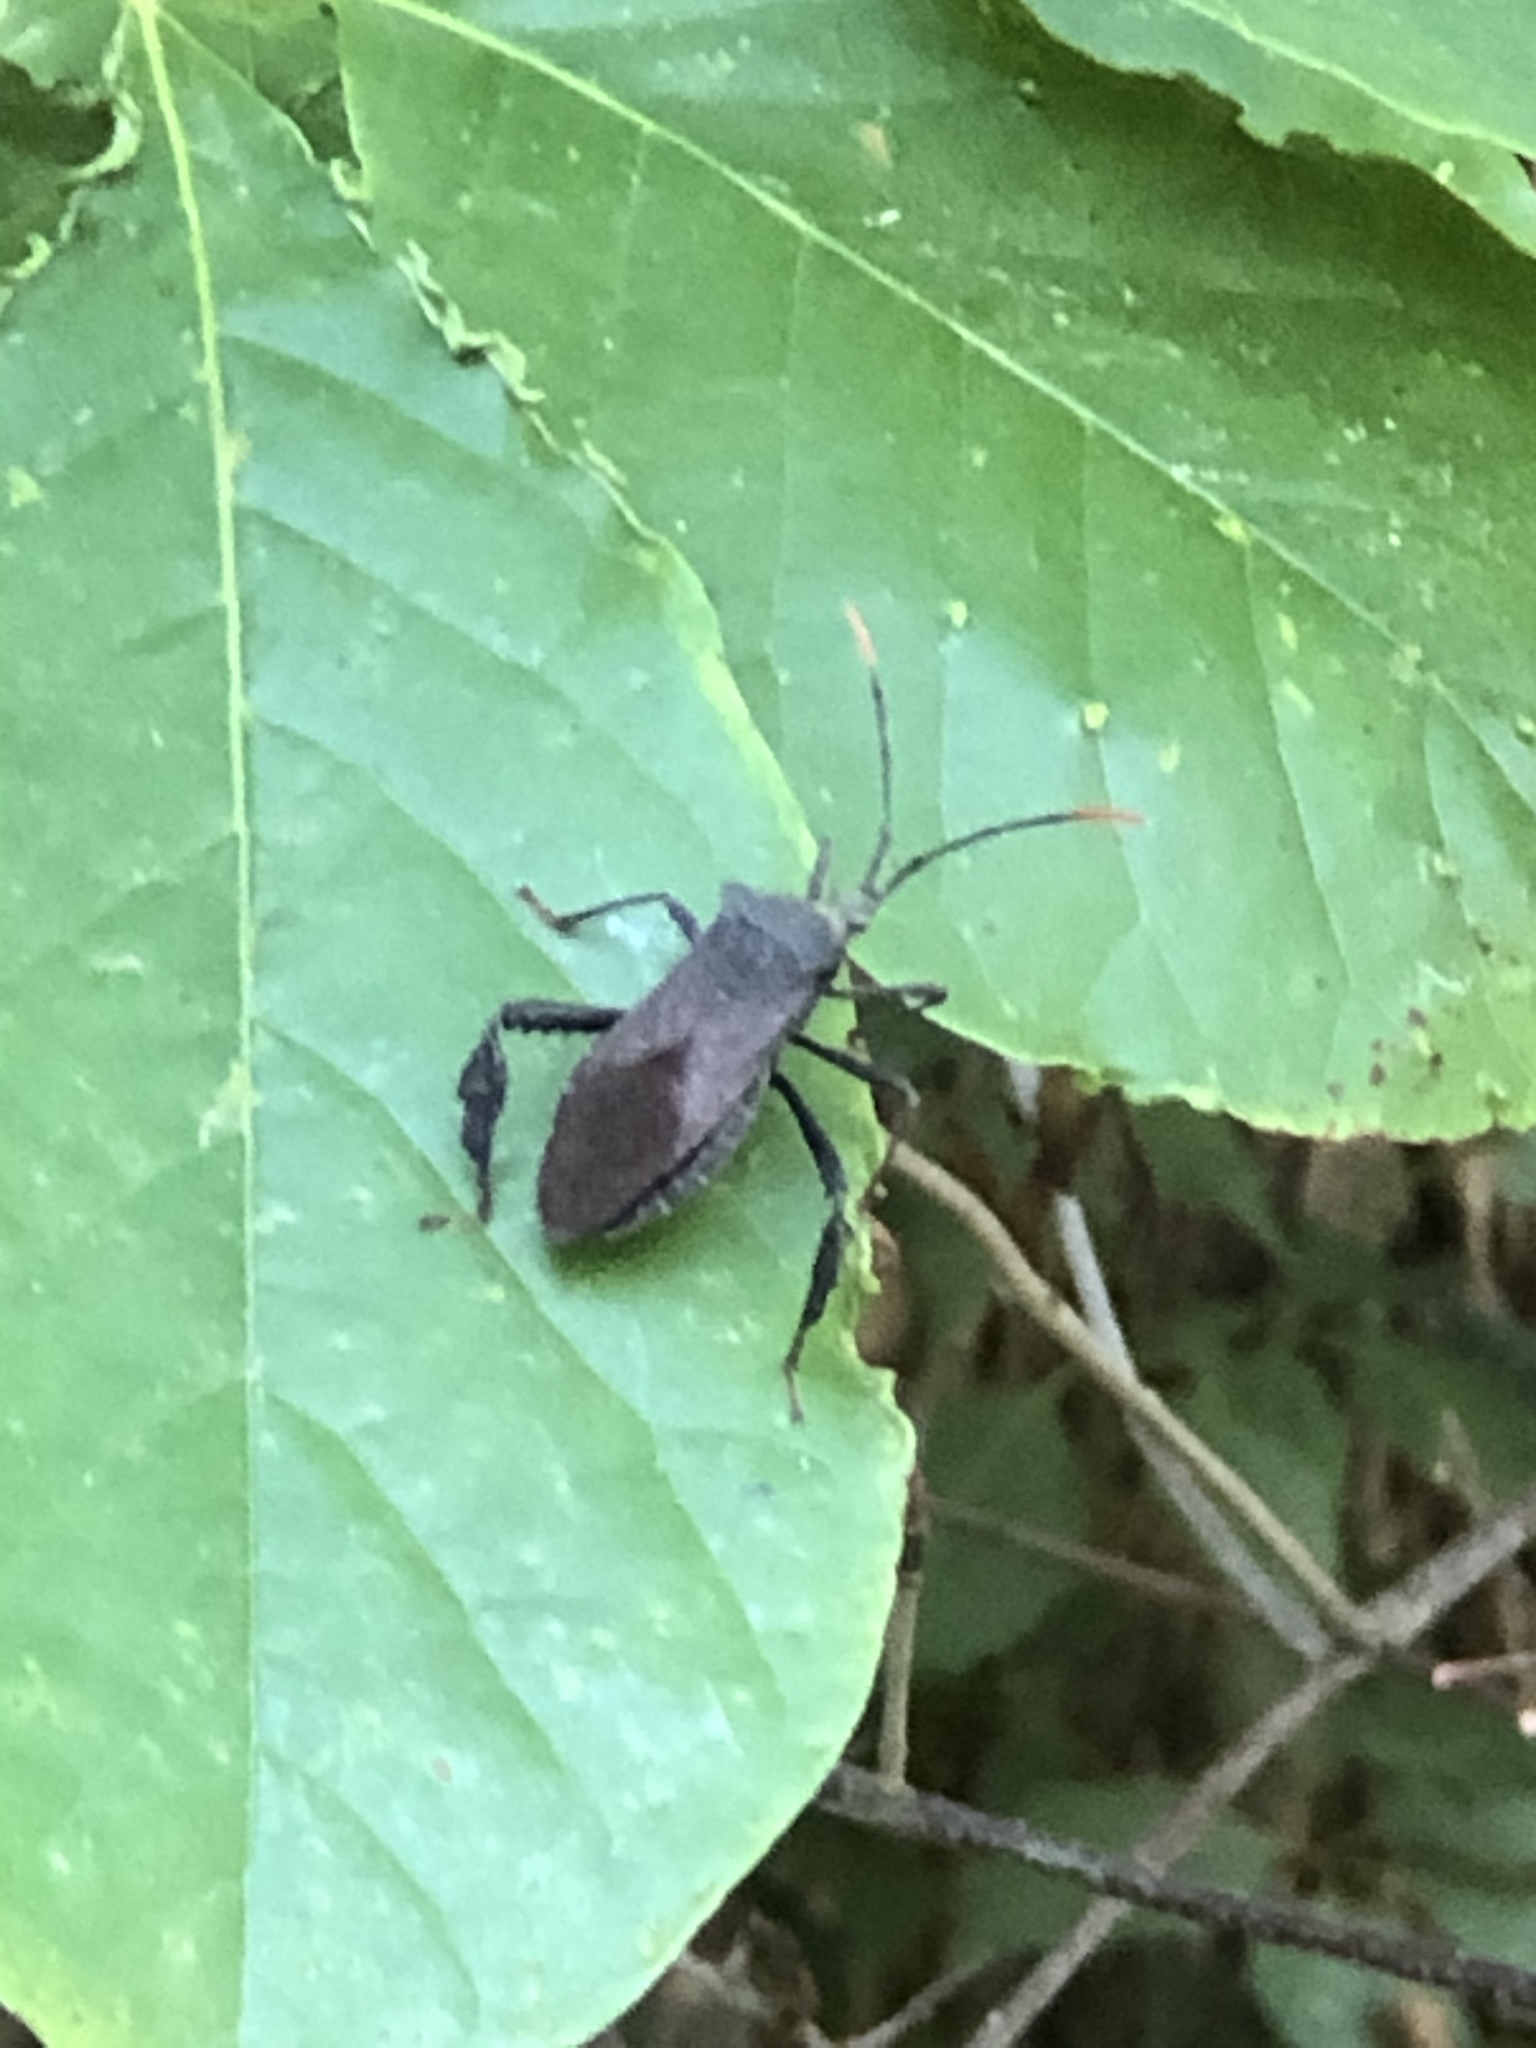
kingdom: Animalia
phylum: Arthropoda
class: Insecta
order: Hemiptera
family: Coreidae
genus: Acanthocephala
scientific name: Acanthocephala terminalis
